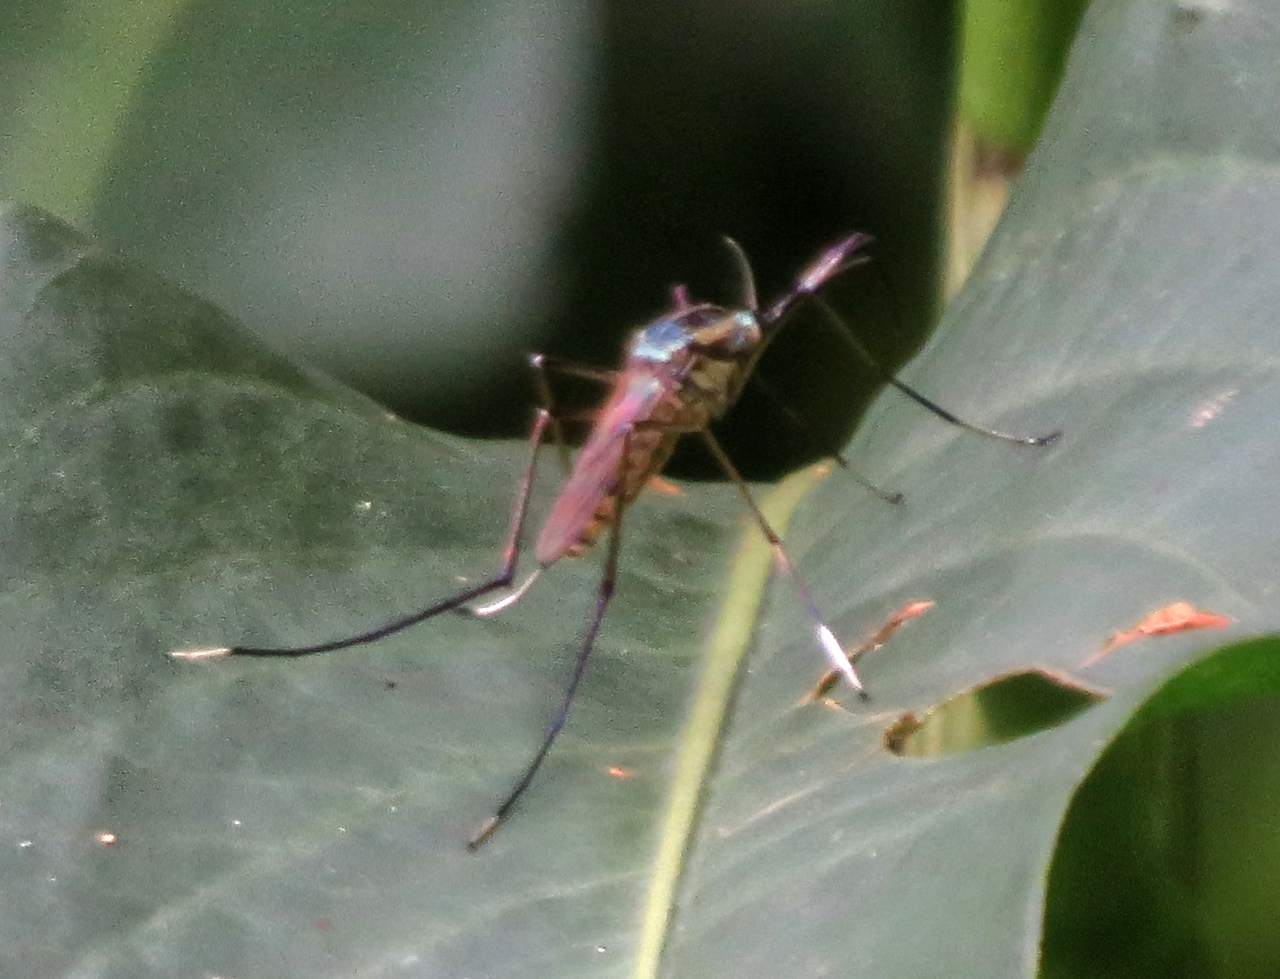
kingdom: Animalia
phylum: Arthropoda
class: Insecta
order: Diptera
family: Culicidae
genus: Toxorhynchites
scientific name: Toxorhynchites rutilus
